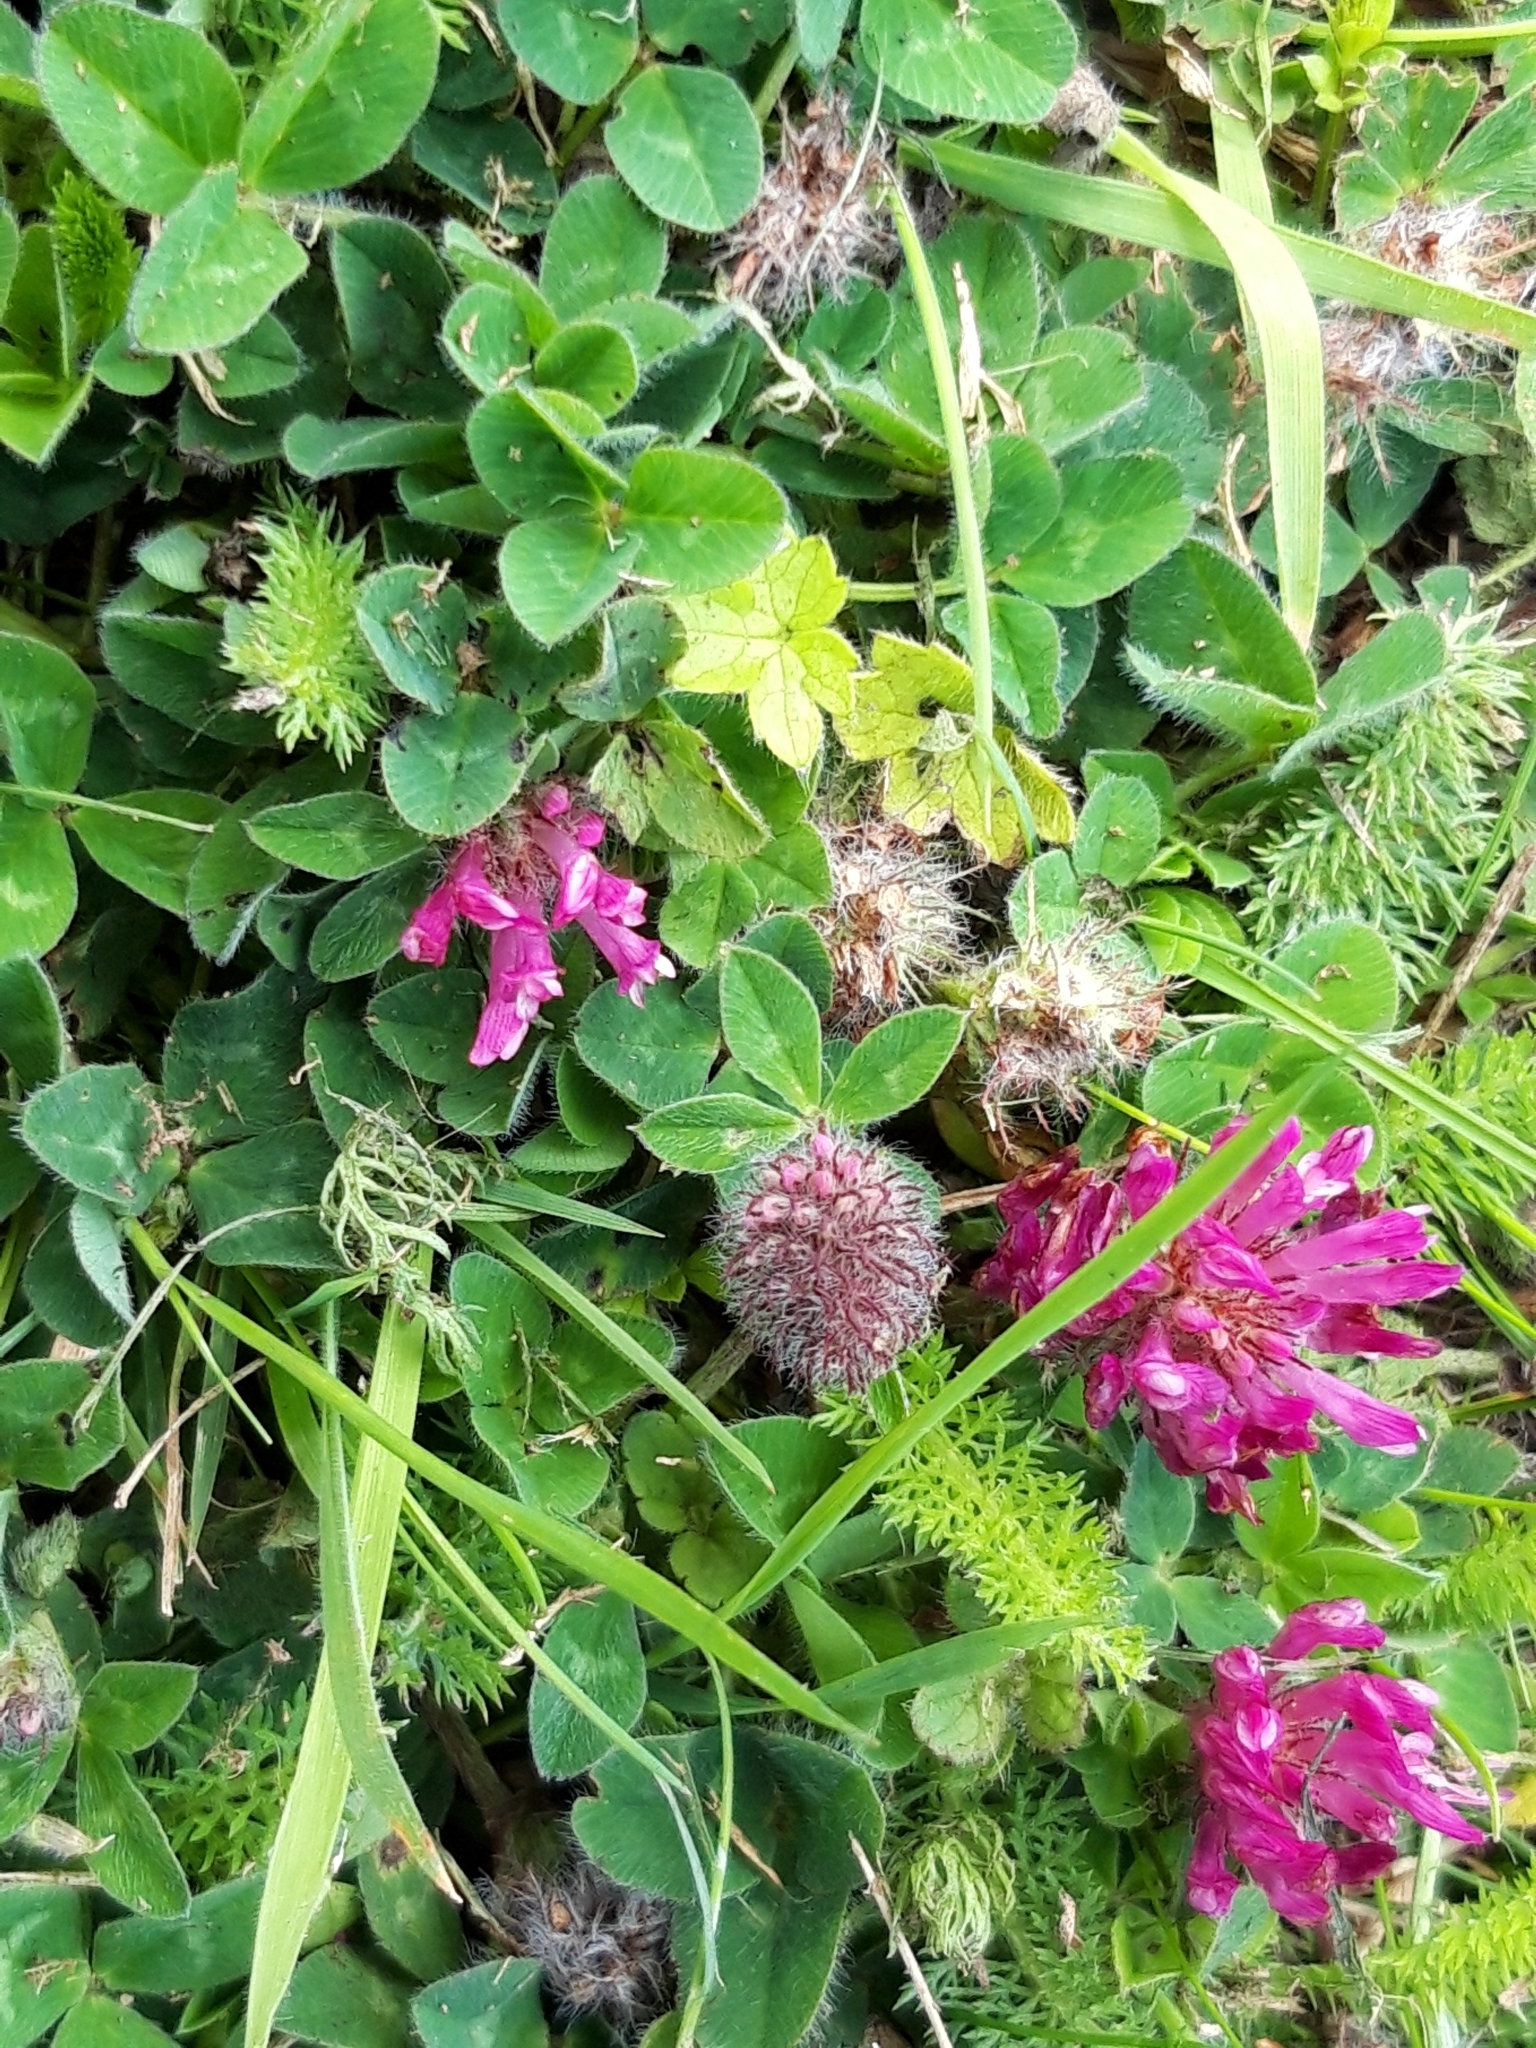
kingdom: Plantae
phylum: Tracheophyta
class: Magnoliopsida
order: Fabales
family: Fabaceae
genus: Trifolium
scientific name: Trifolium pratense
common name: Red clover
